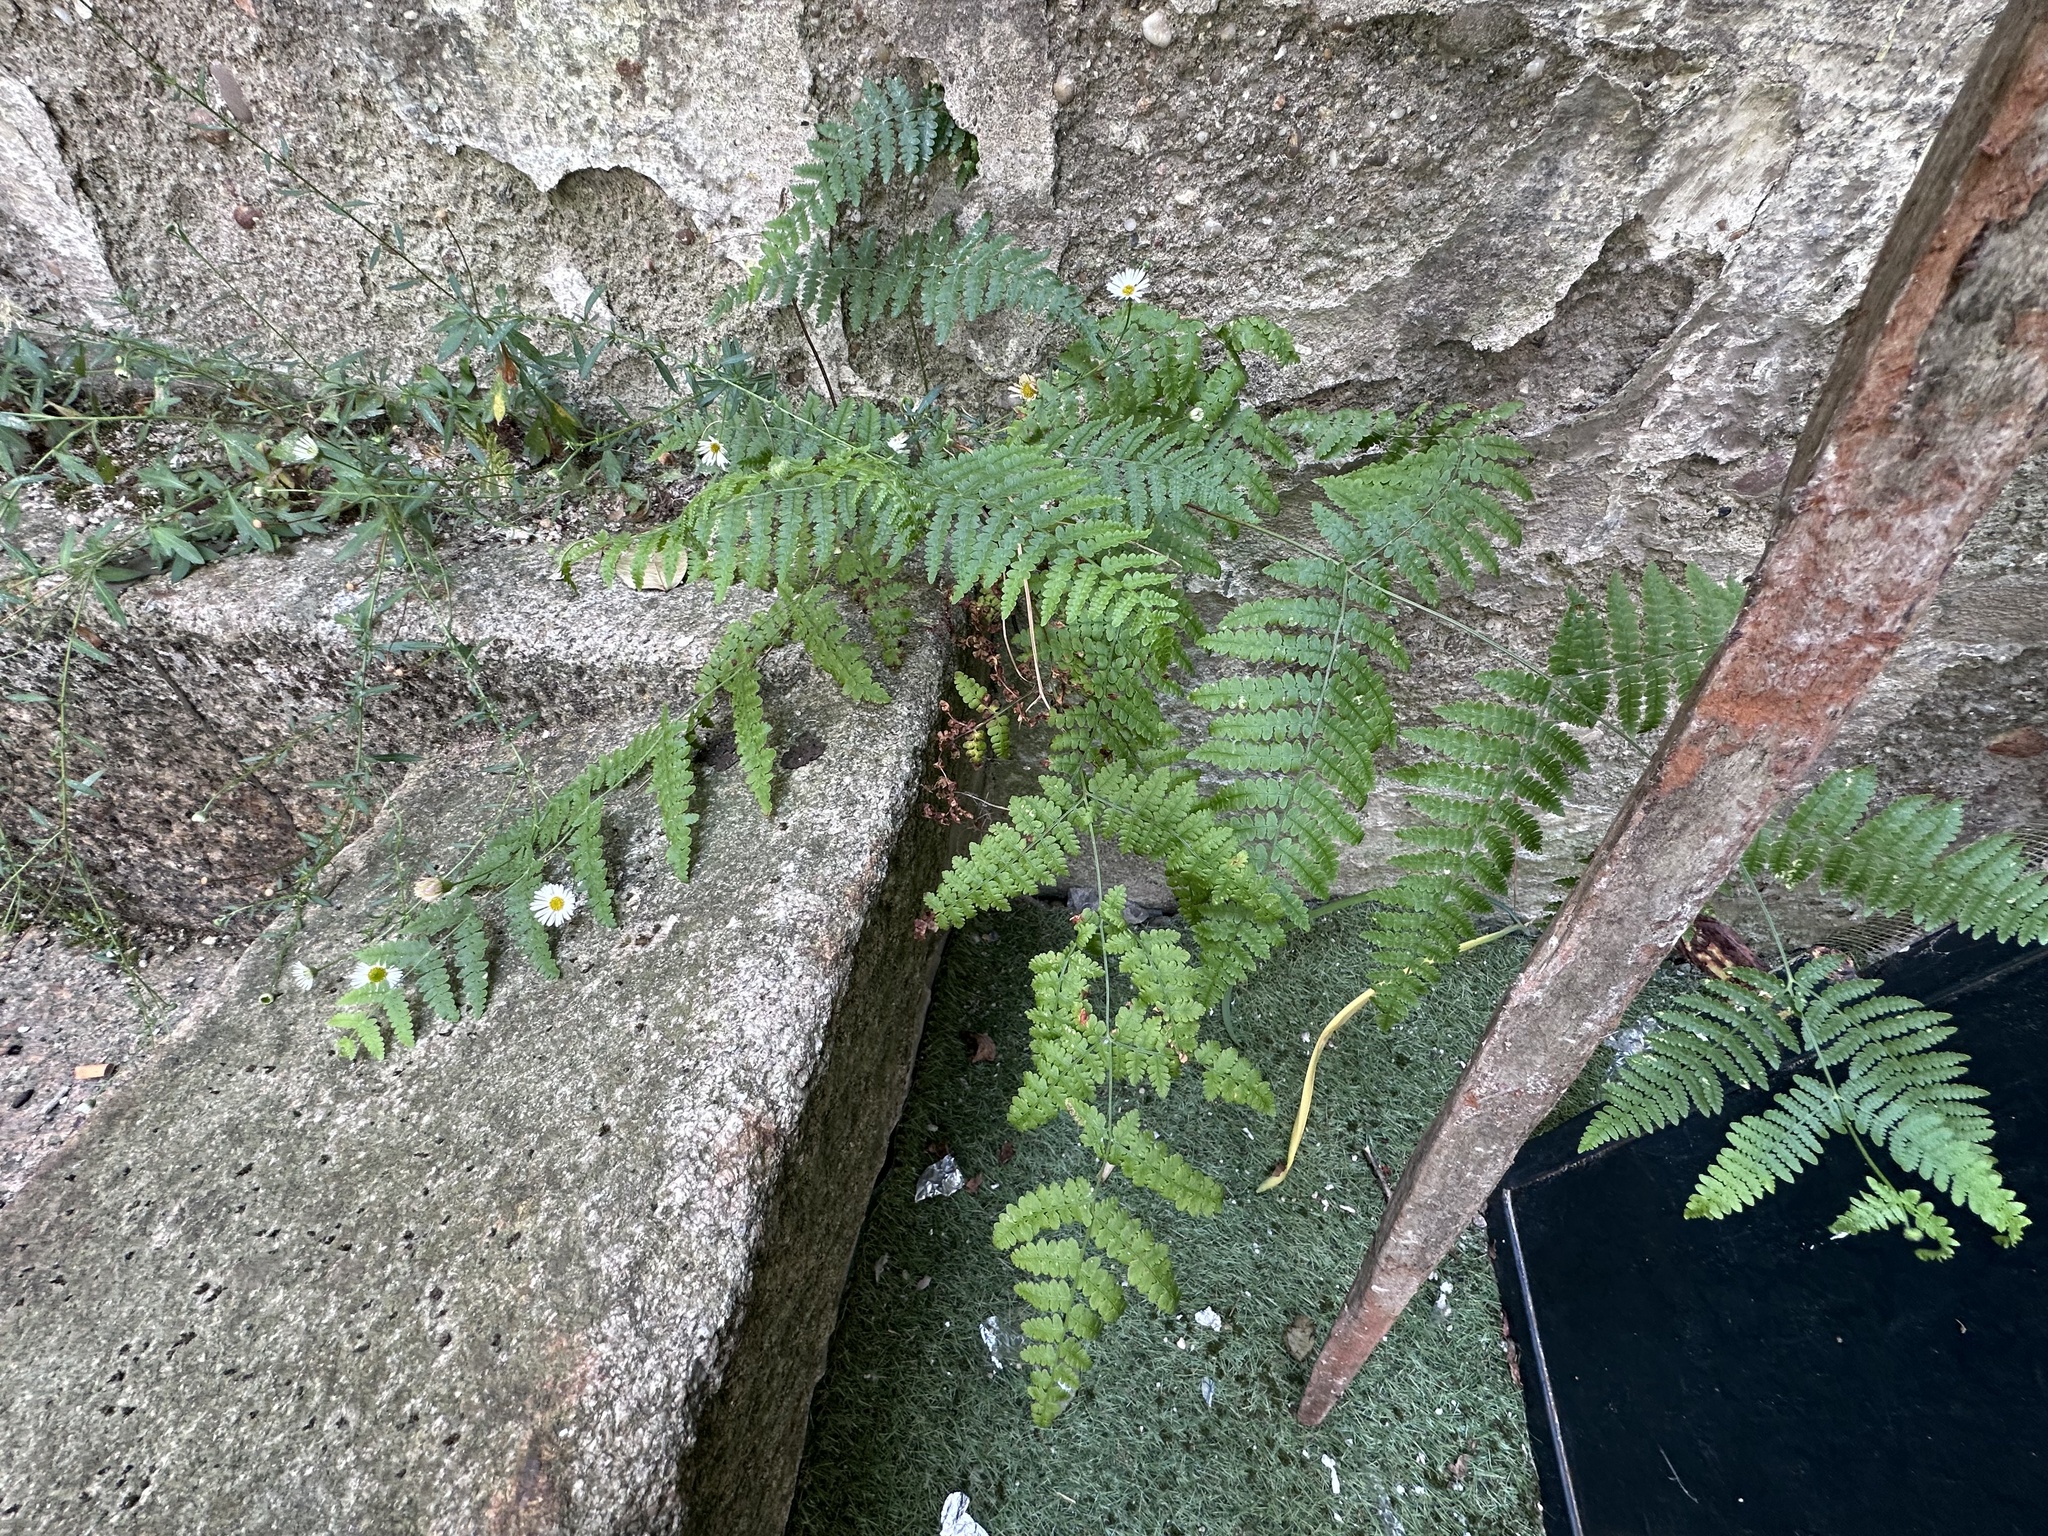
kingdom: Plantae
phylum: Tracheophyta
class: Polypodiopsida
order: Polypodiales
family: Dennstaedtiaceae
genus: Pteridium
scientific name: Pteridium aquilinum
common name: Bracken
